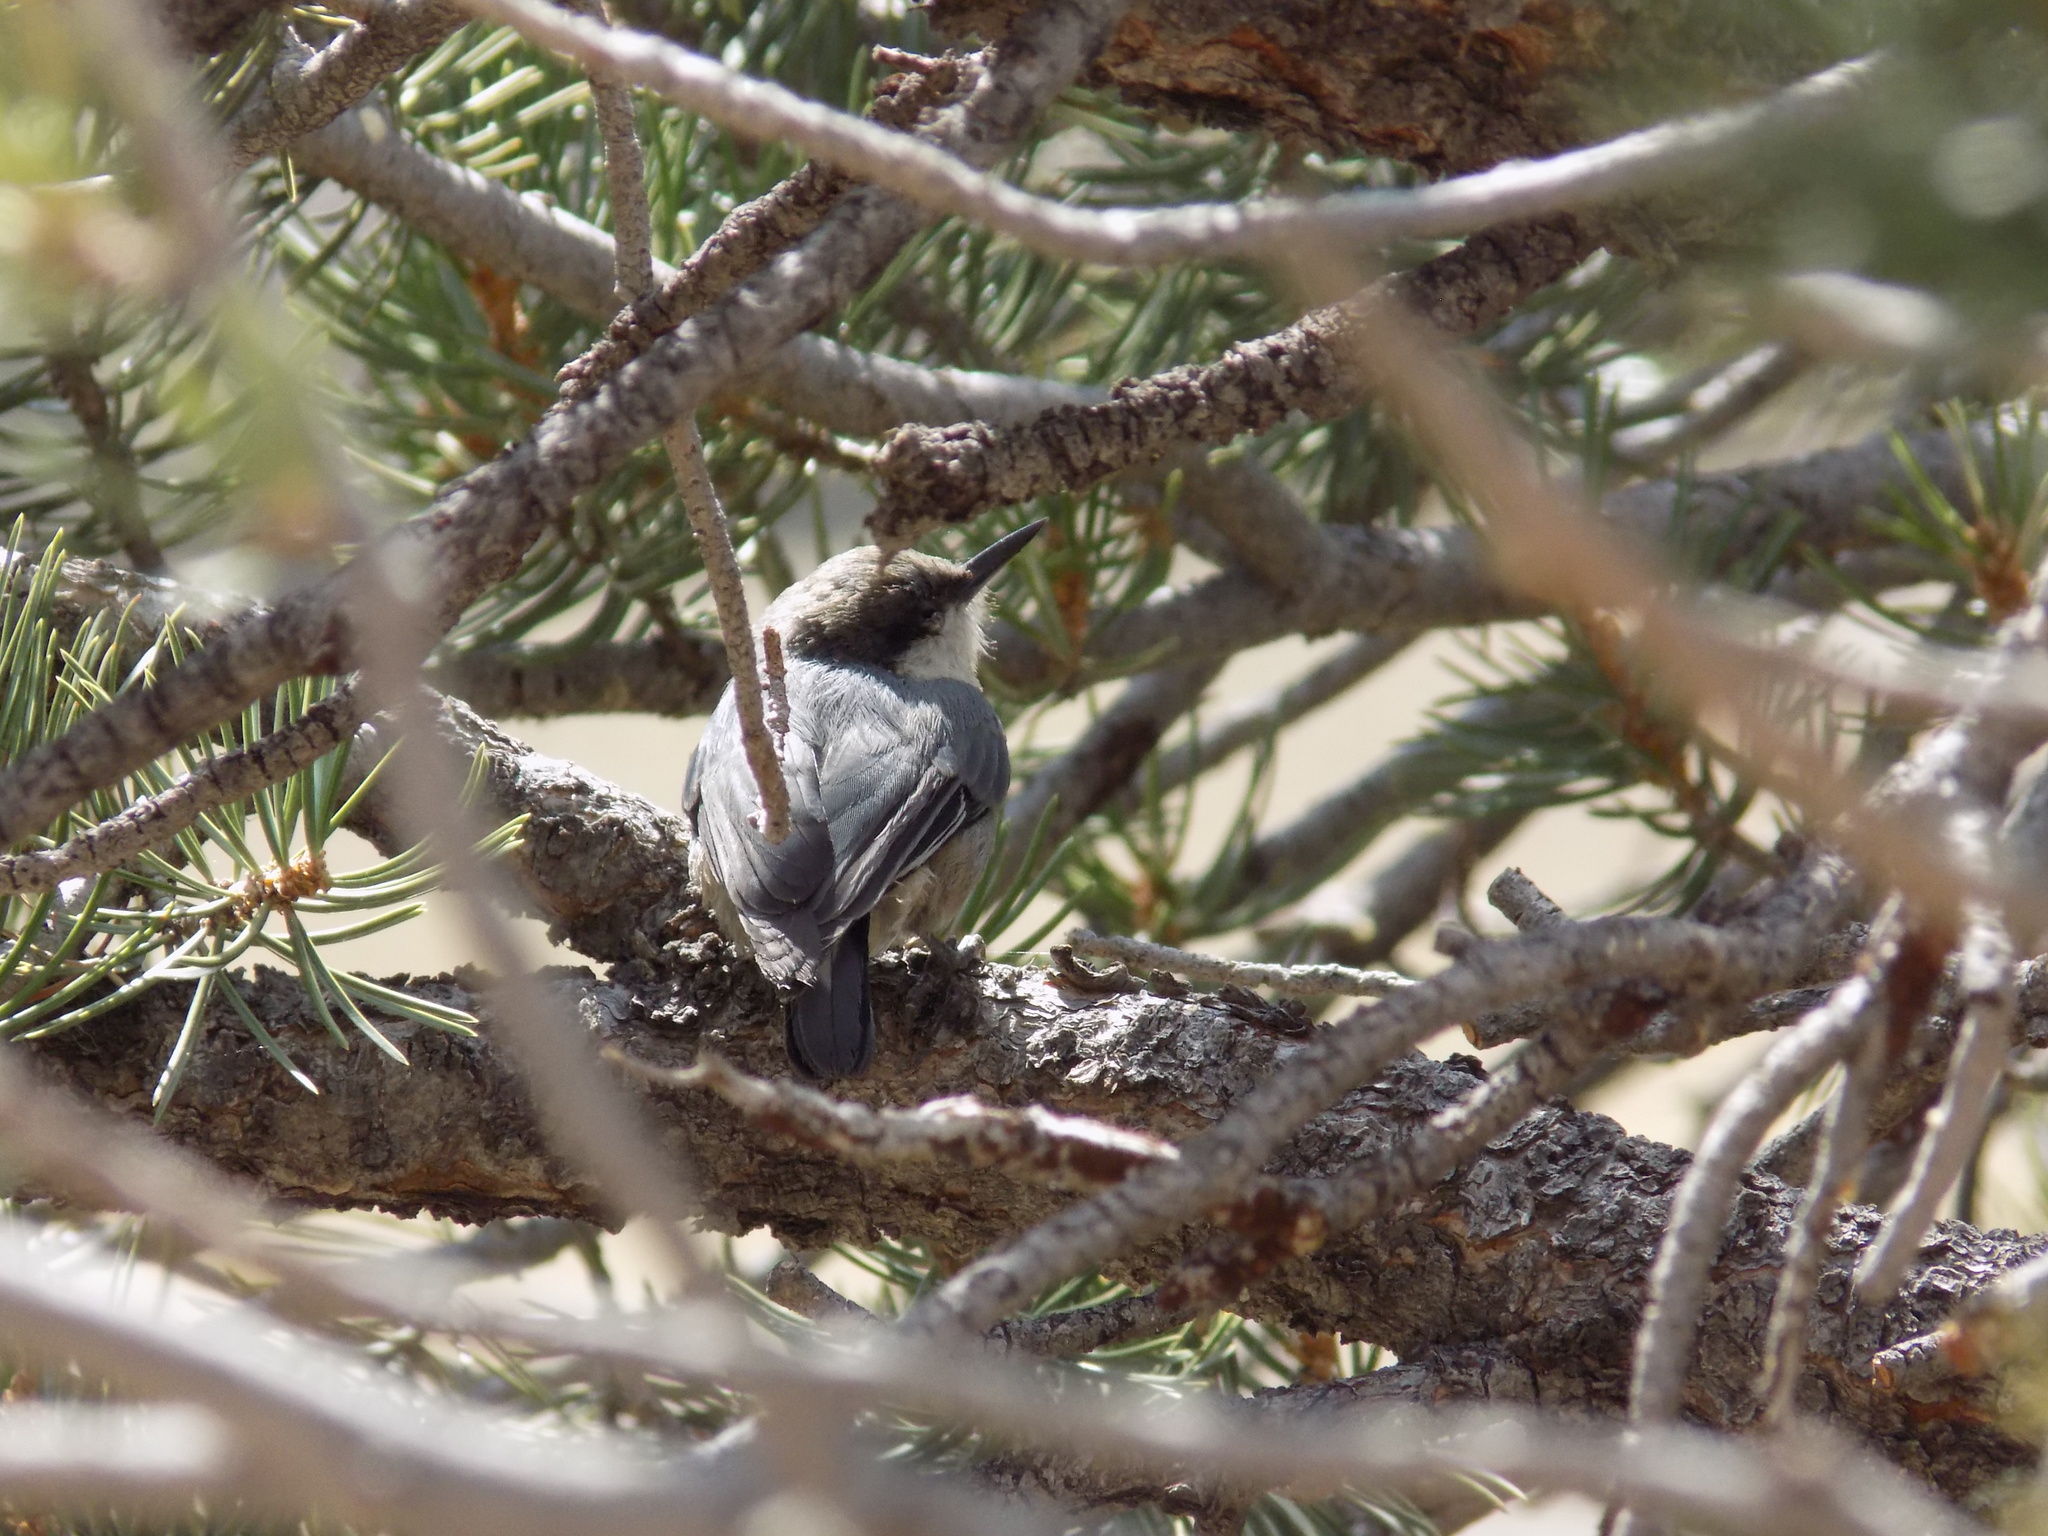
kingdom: Animalia
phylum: Chordata
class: Aves
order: Passeriformes
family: Sittidae
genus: Sitta
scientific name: Sitta pygmaea
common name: Pygmy nuthatch
